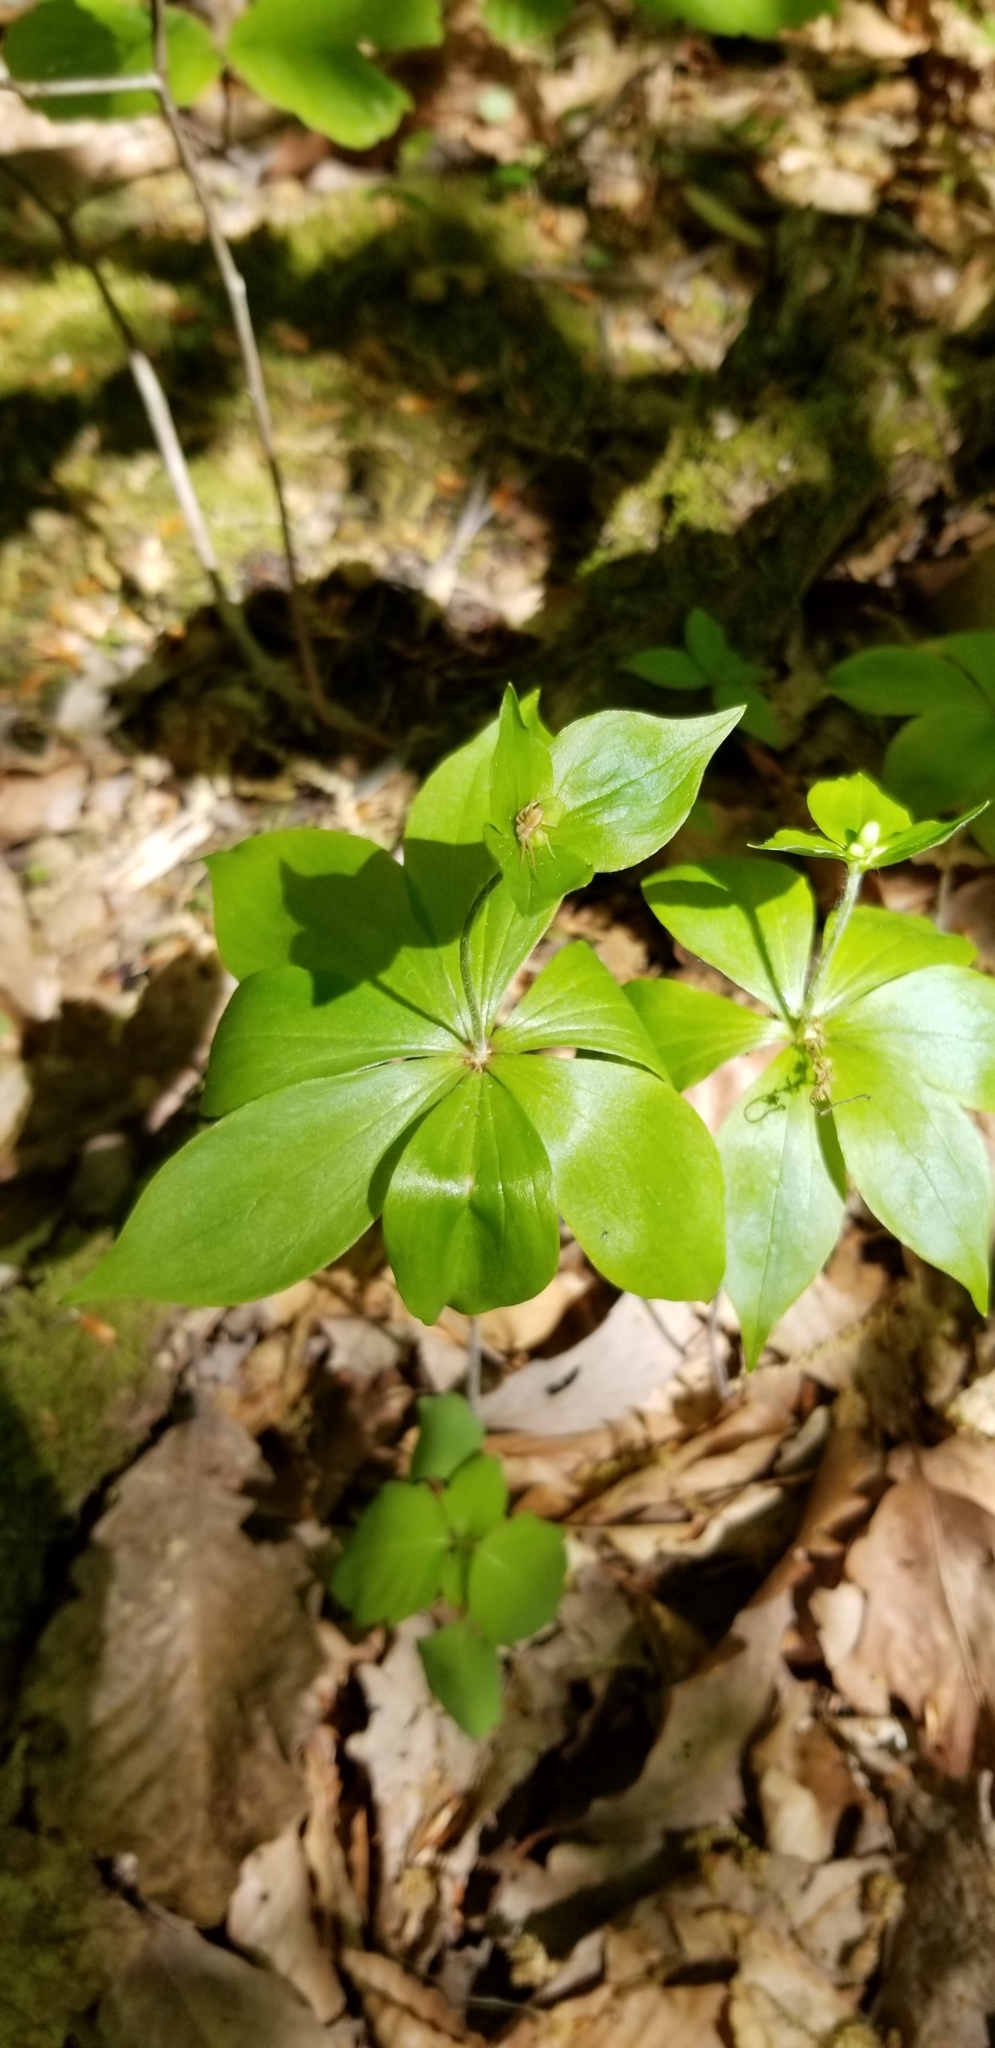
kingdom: Plantae
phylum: Tracheophyta
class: Liliopsida
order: Liliales
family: Liliaceae
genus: Medeola
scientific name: Medeola virginiana
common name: Indian cucumber-root
